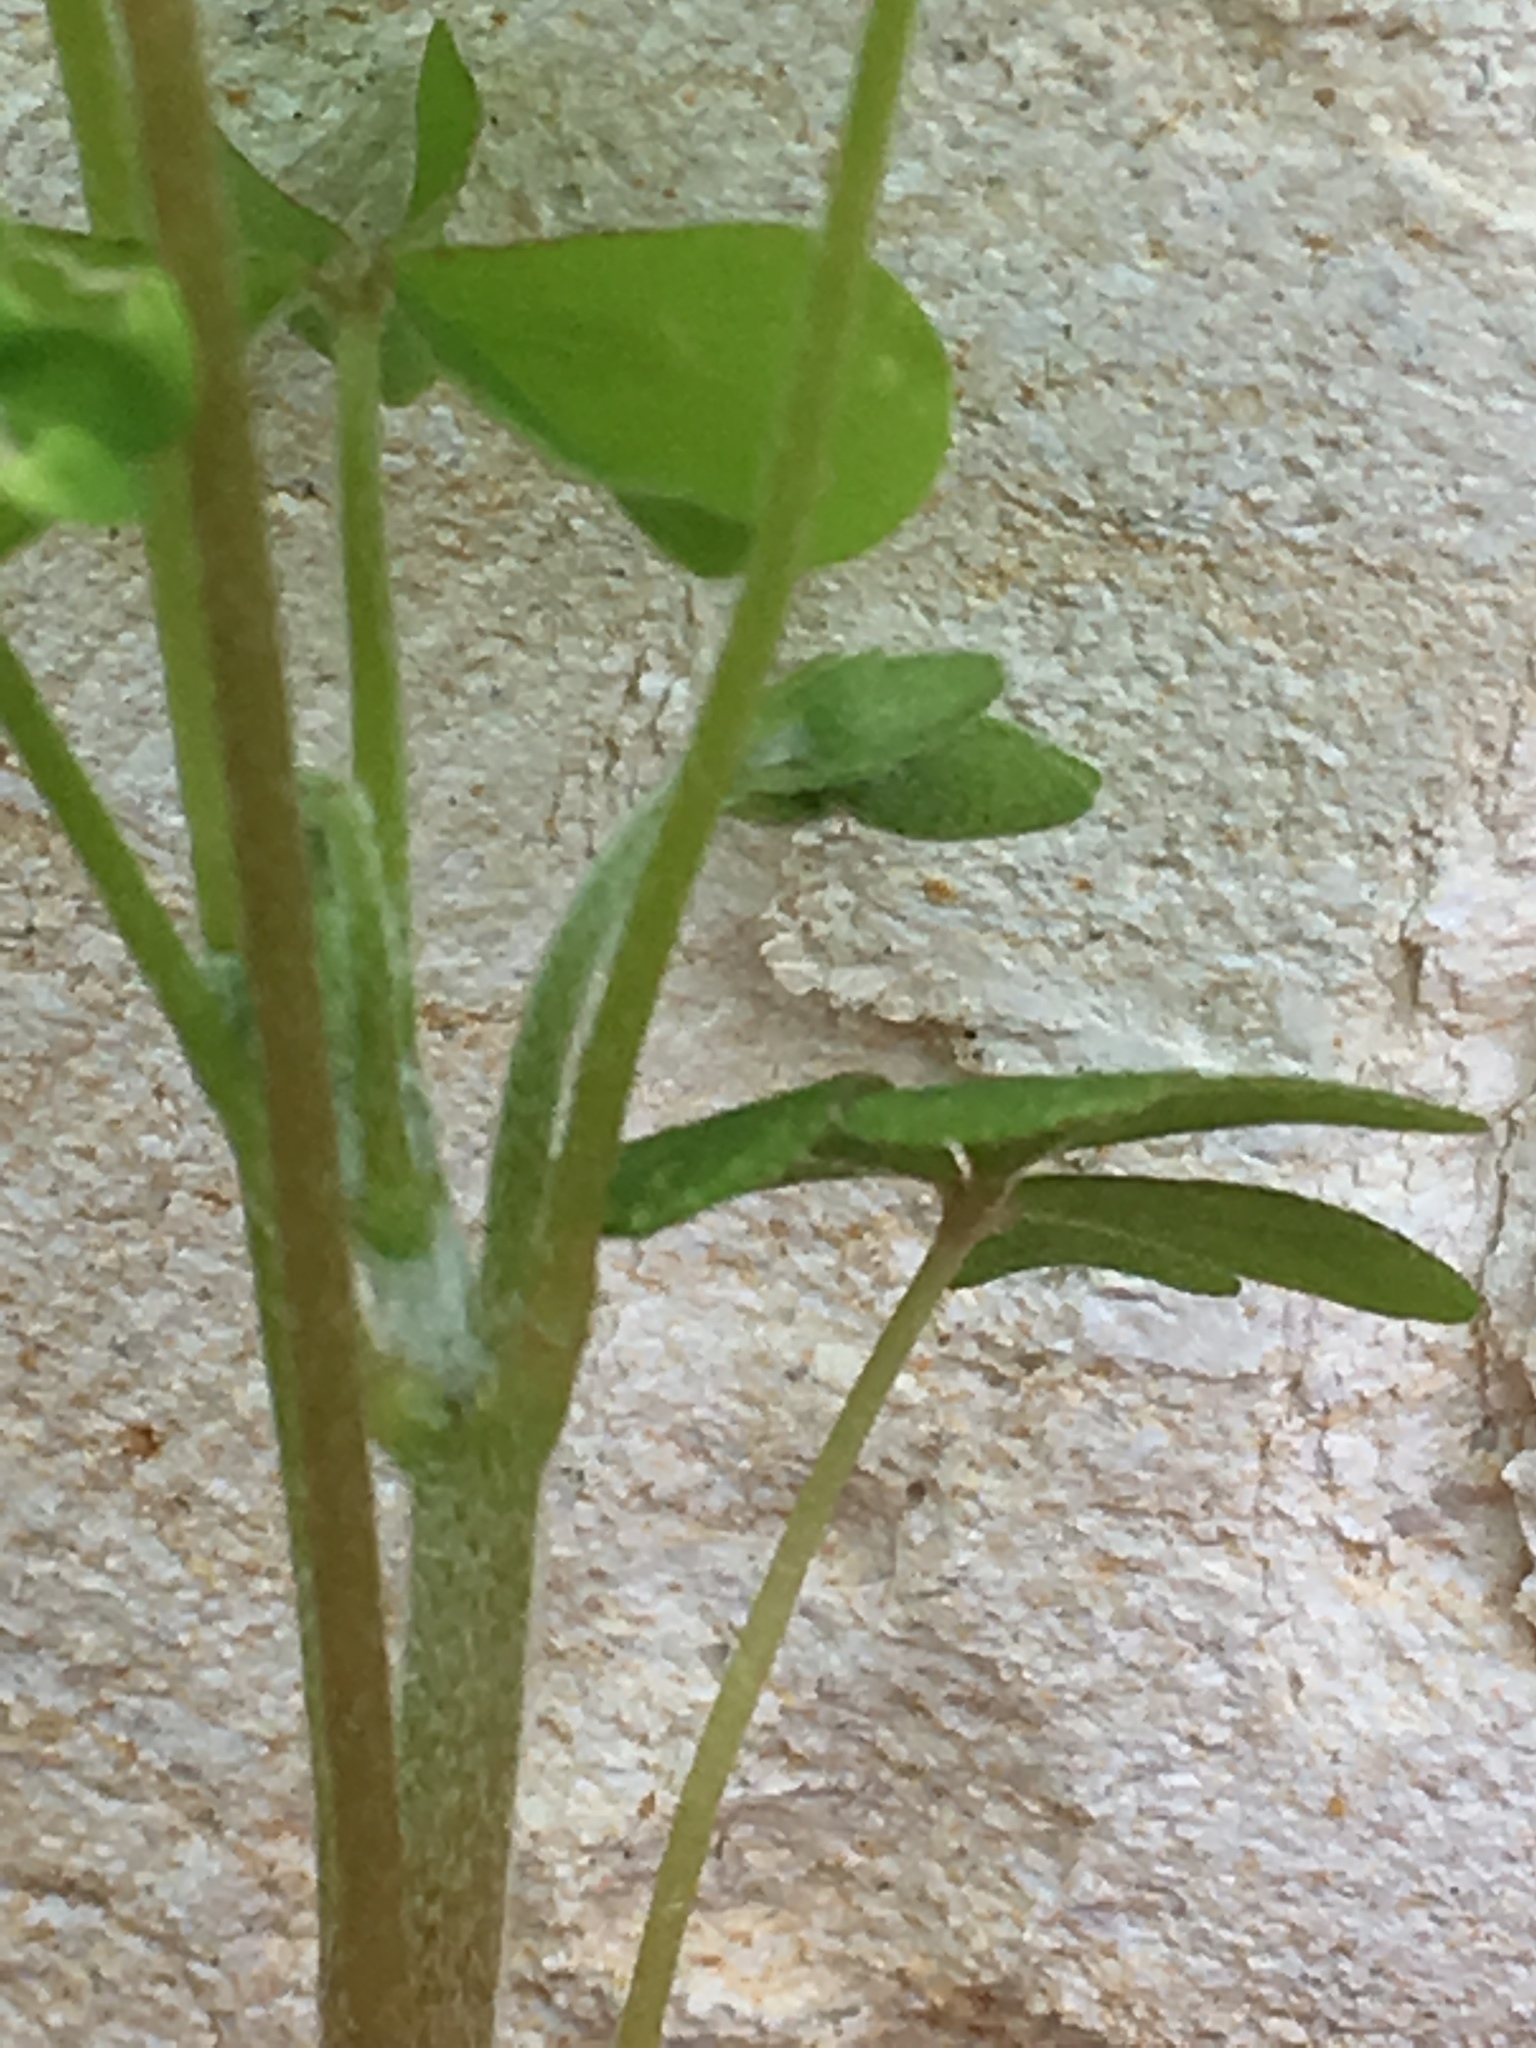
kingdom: Plantae
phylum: Tracheophyta
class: Magnoliopsida
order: Oxalidales
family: Oxalidaceae
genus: Oxalis
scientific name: Oxalis dillenii
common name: Sussex yellow-sorrel
